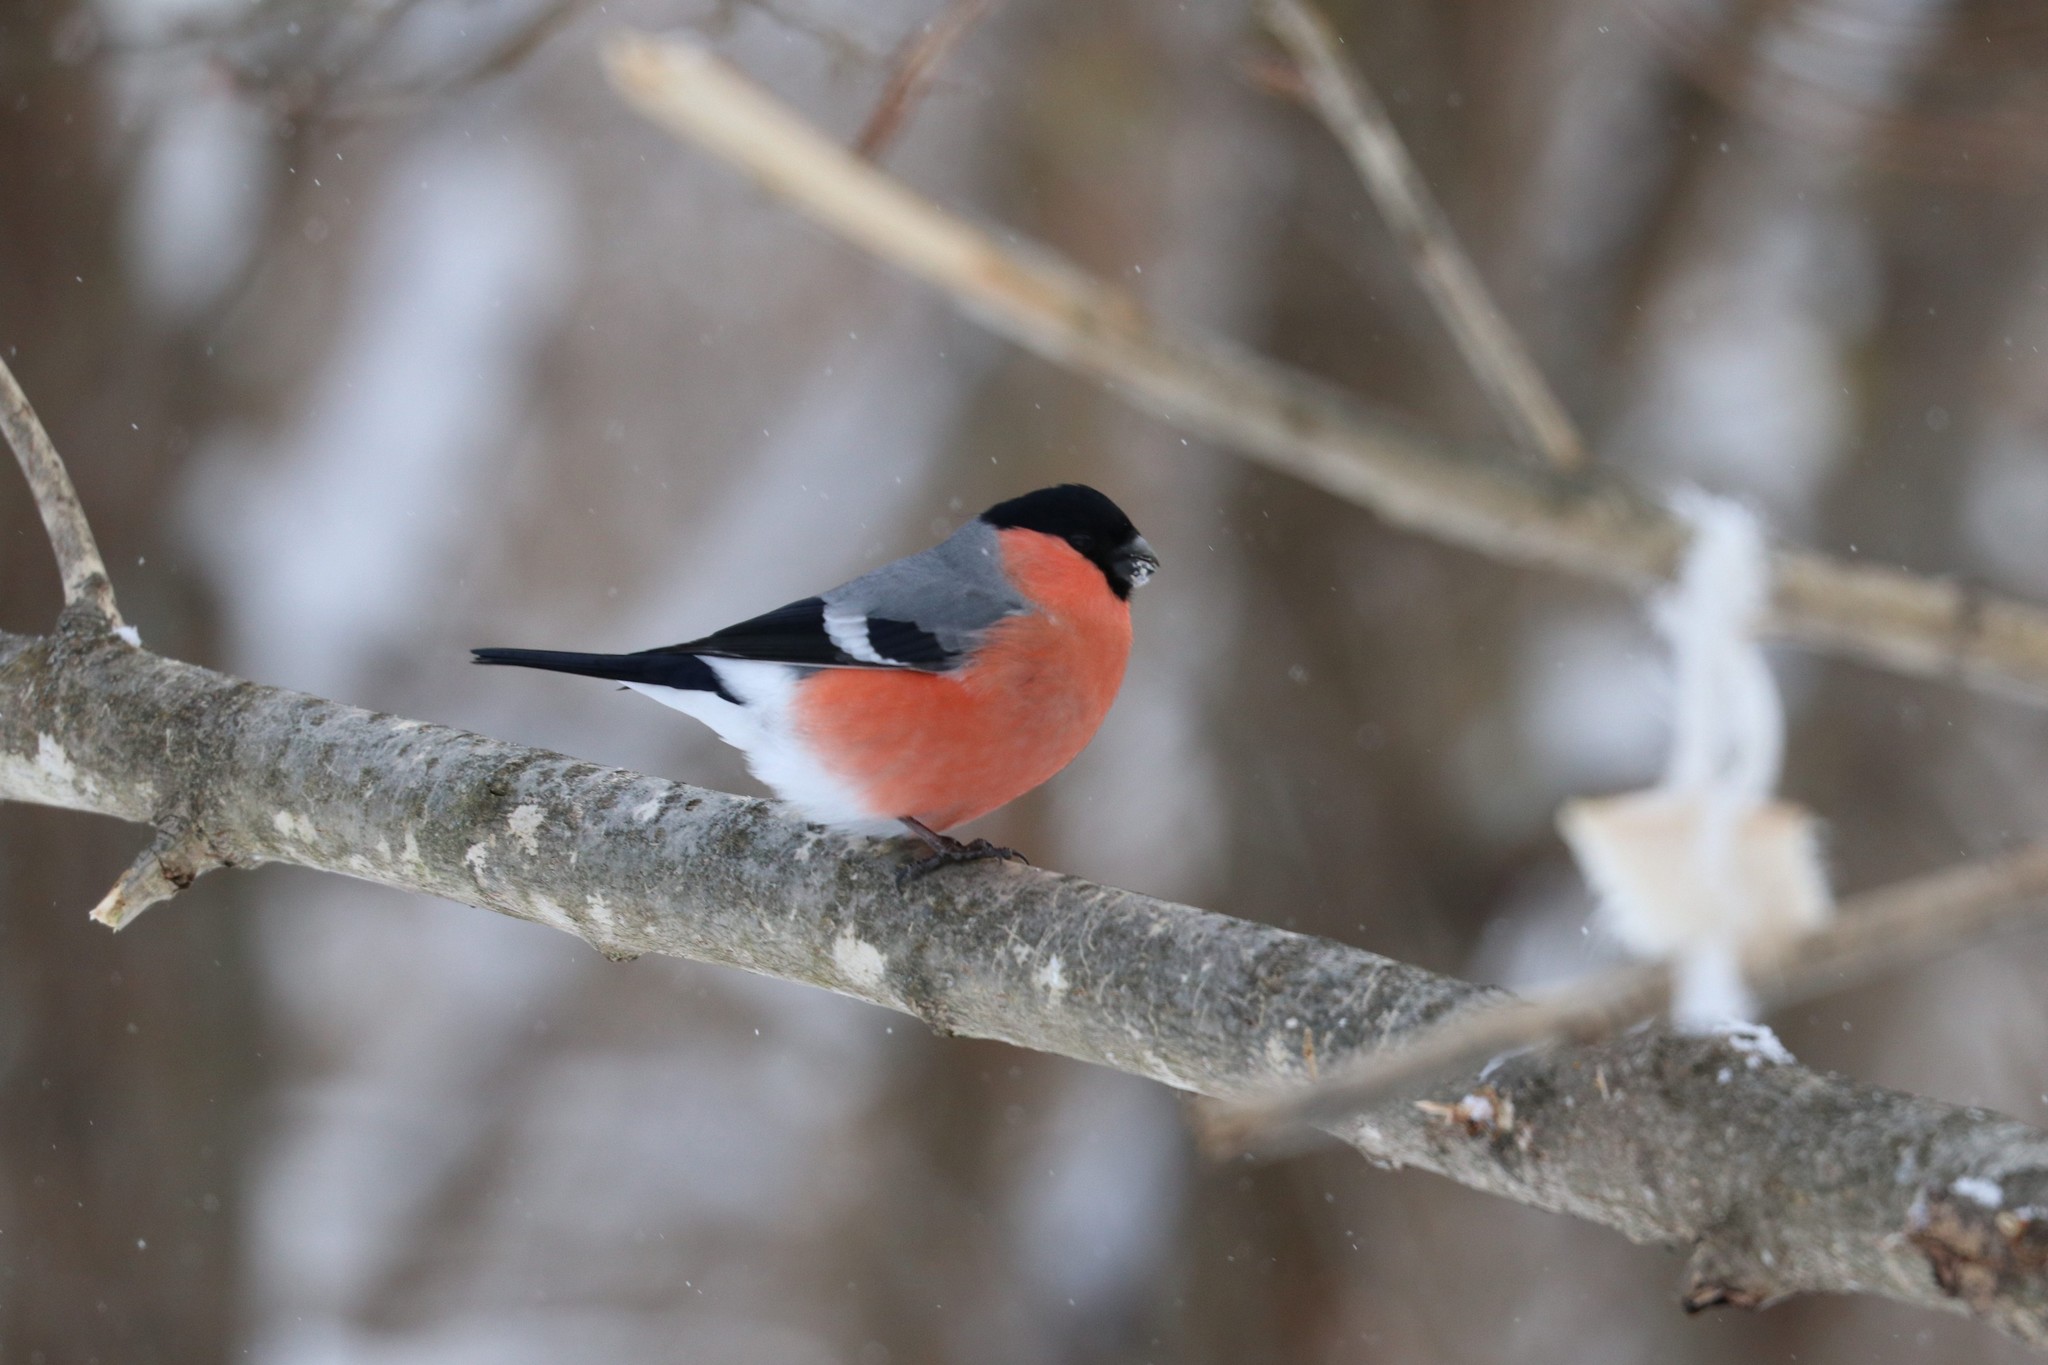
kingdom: Animalia
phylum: Chordata
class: Aves
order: Passeriformes
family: Fringillidae
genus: Pyrrhula
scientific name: Pyrrhula pyrrhula
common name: Eurasian bullfinch
